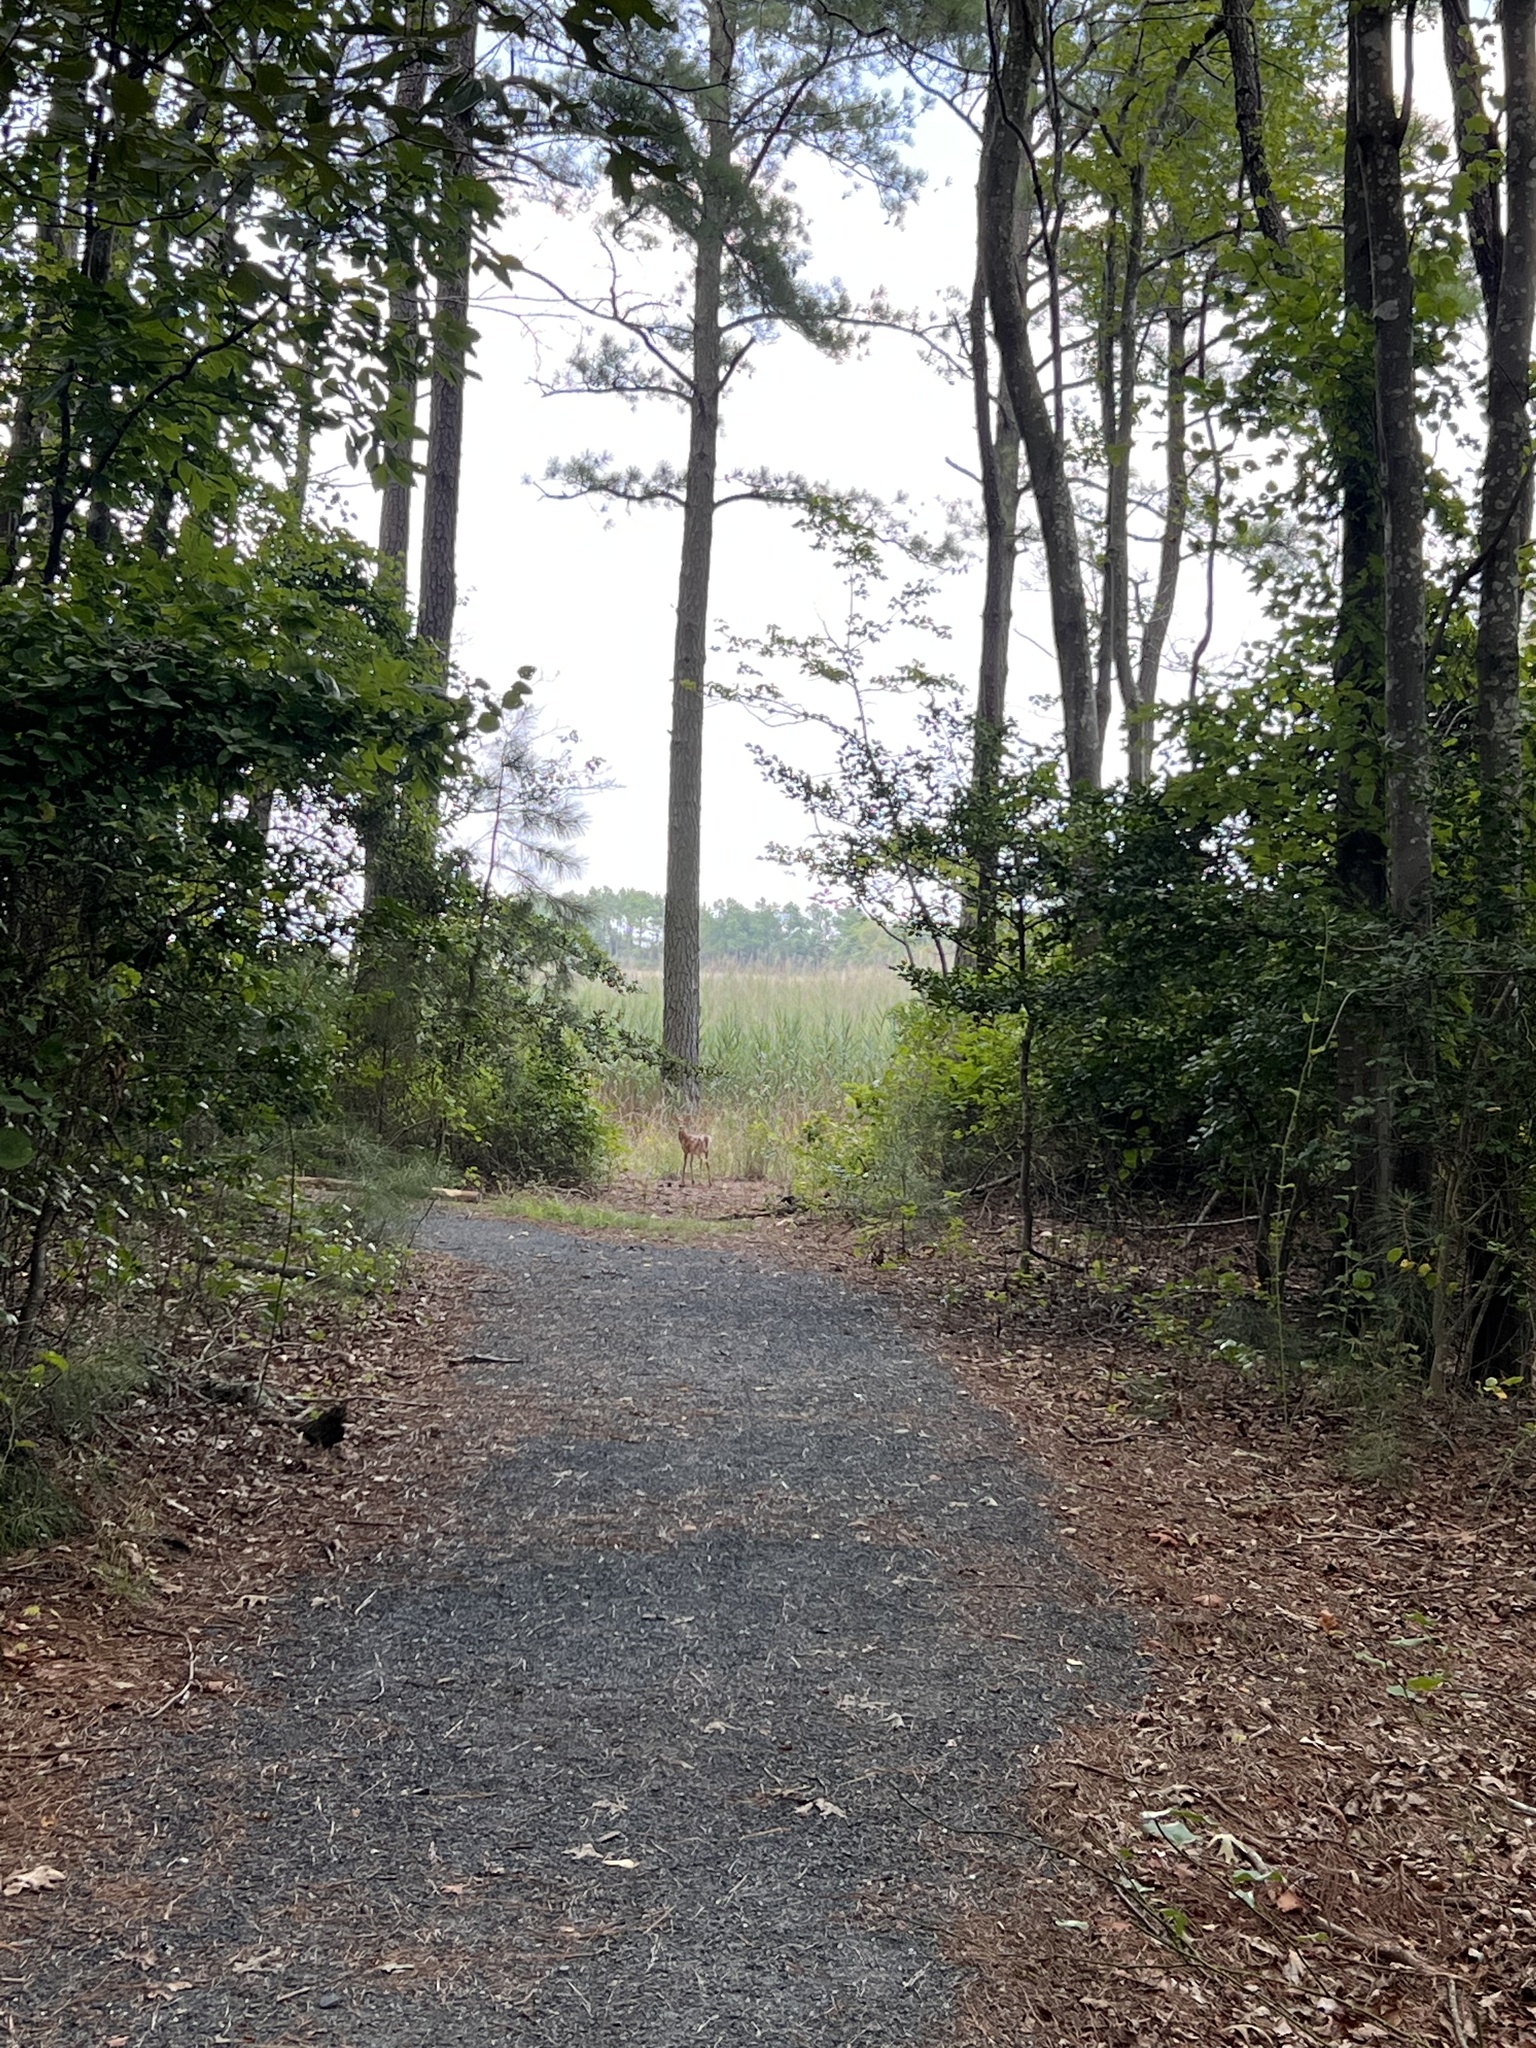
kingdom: Animalia
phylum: Chordata
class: Mammalia
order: Artiodactyla
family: Cervidae
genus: Odocoileus
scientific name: Odocoileus virginianus
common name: White-tailed deer
